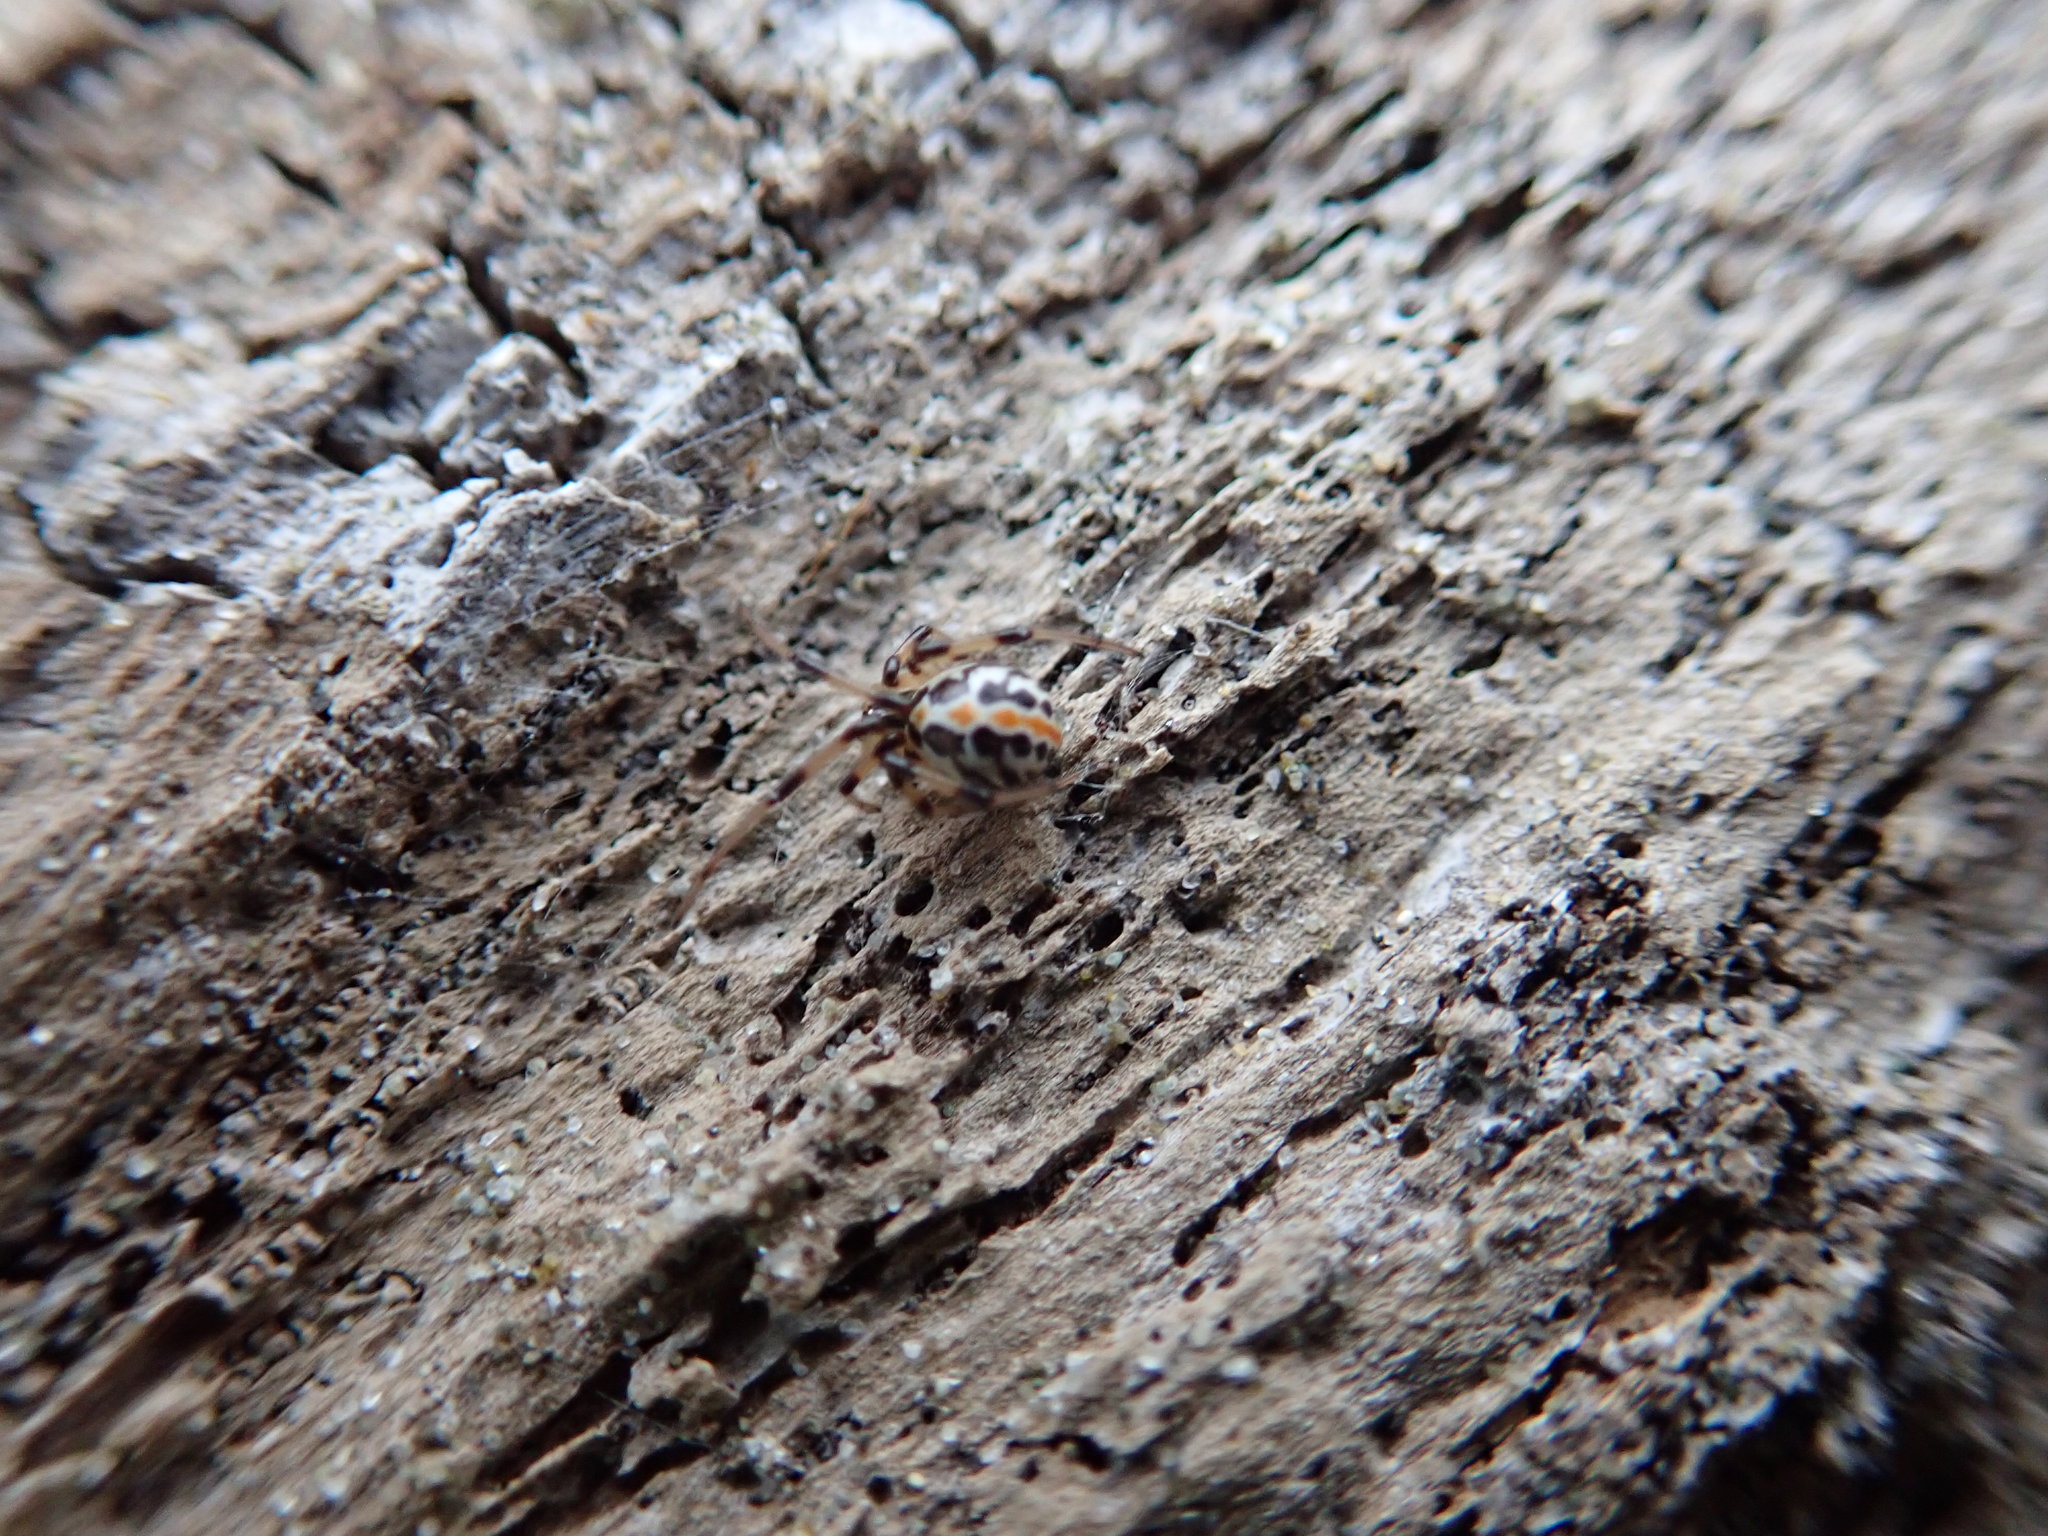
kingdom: Animalia
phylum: Arthropoda
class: Arachnida
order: Araneae
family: Theridiidae
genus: Latrodectus
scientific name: Latrodectus katipo
